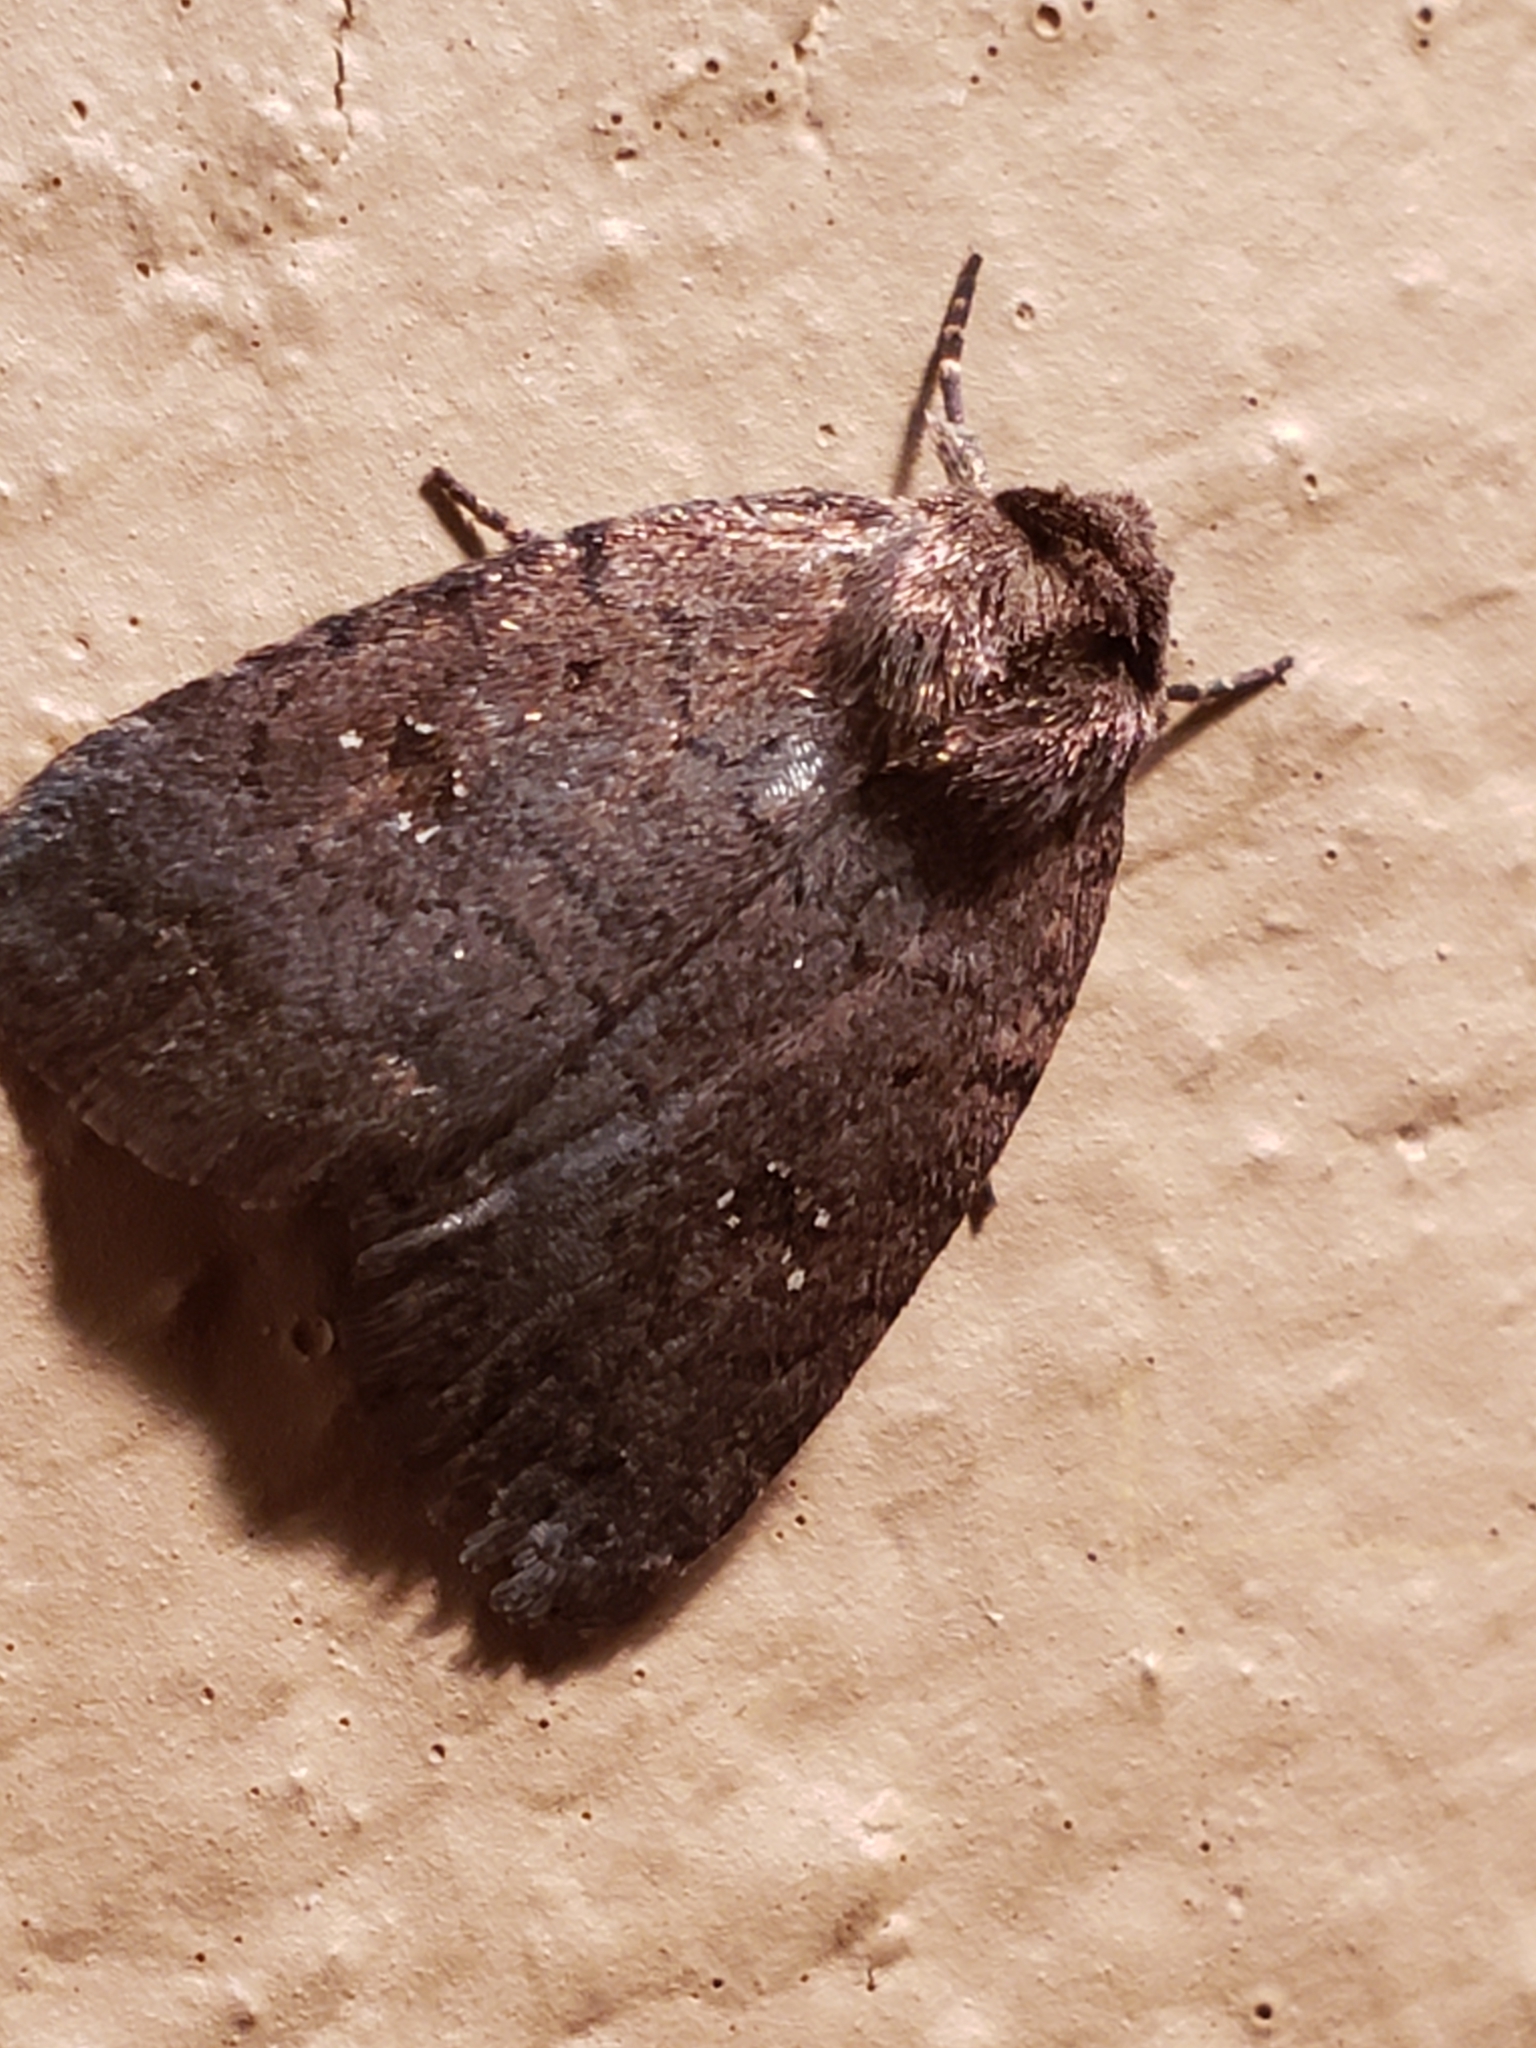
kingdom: Animalia
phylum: Arthropoda
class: Insecta
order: Lepidoptera
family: Noctuidae
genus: Athetis
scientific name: Athetis tarda
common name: Slowpoke moth
